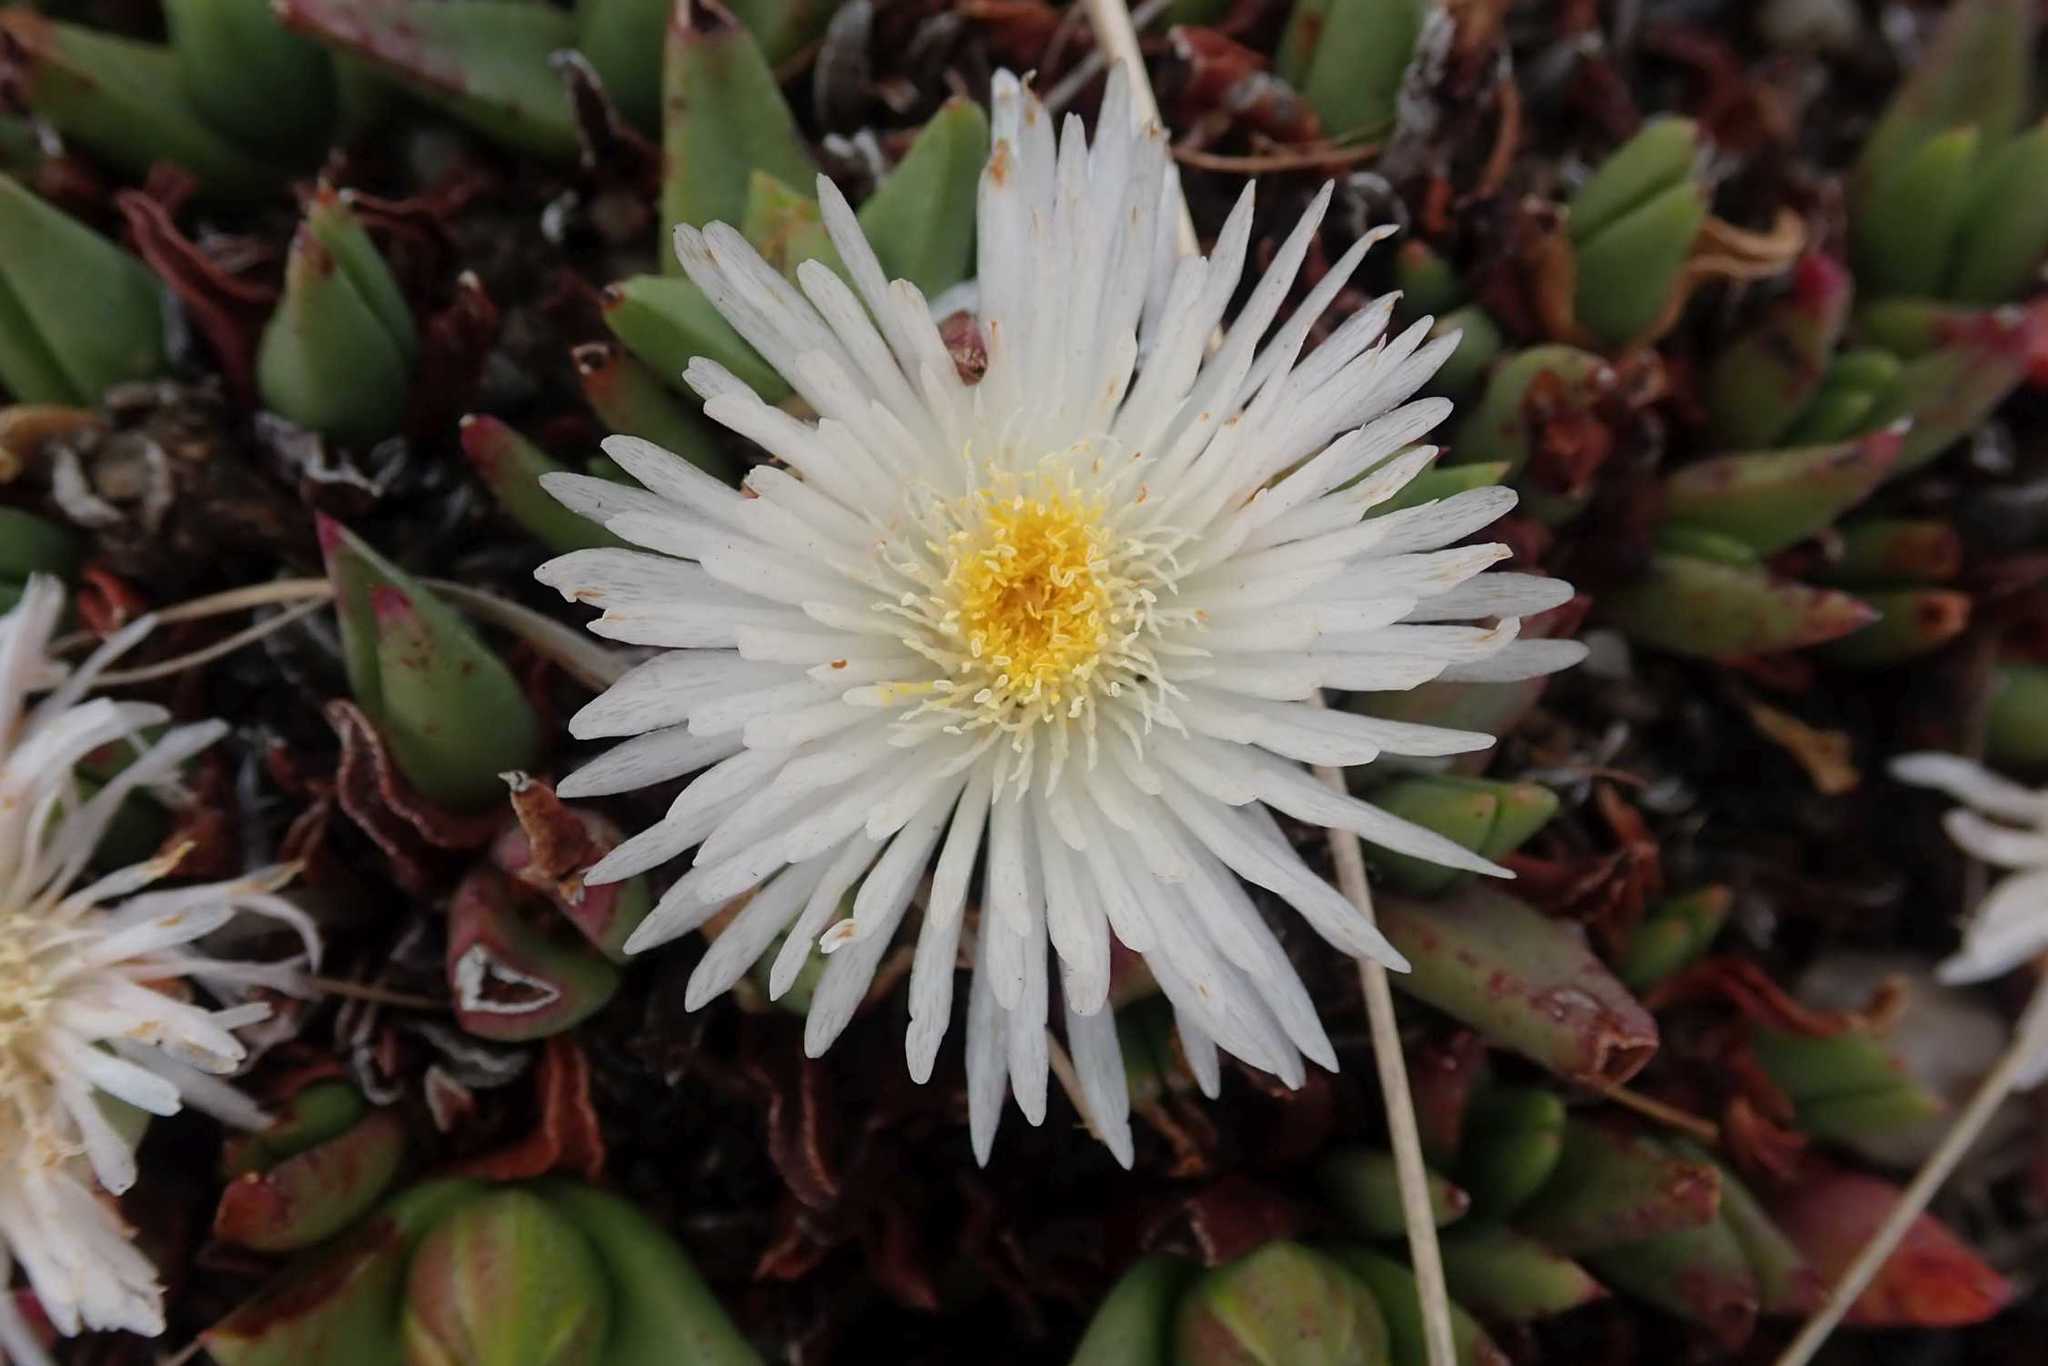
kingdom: Plantae
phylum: Tracheophyta
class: Magnoliopsida
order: Caryophyllales
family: Aizoaceae
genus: Khadia
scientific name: Khadia alticola
